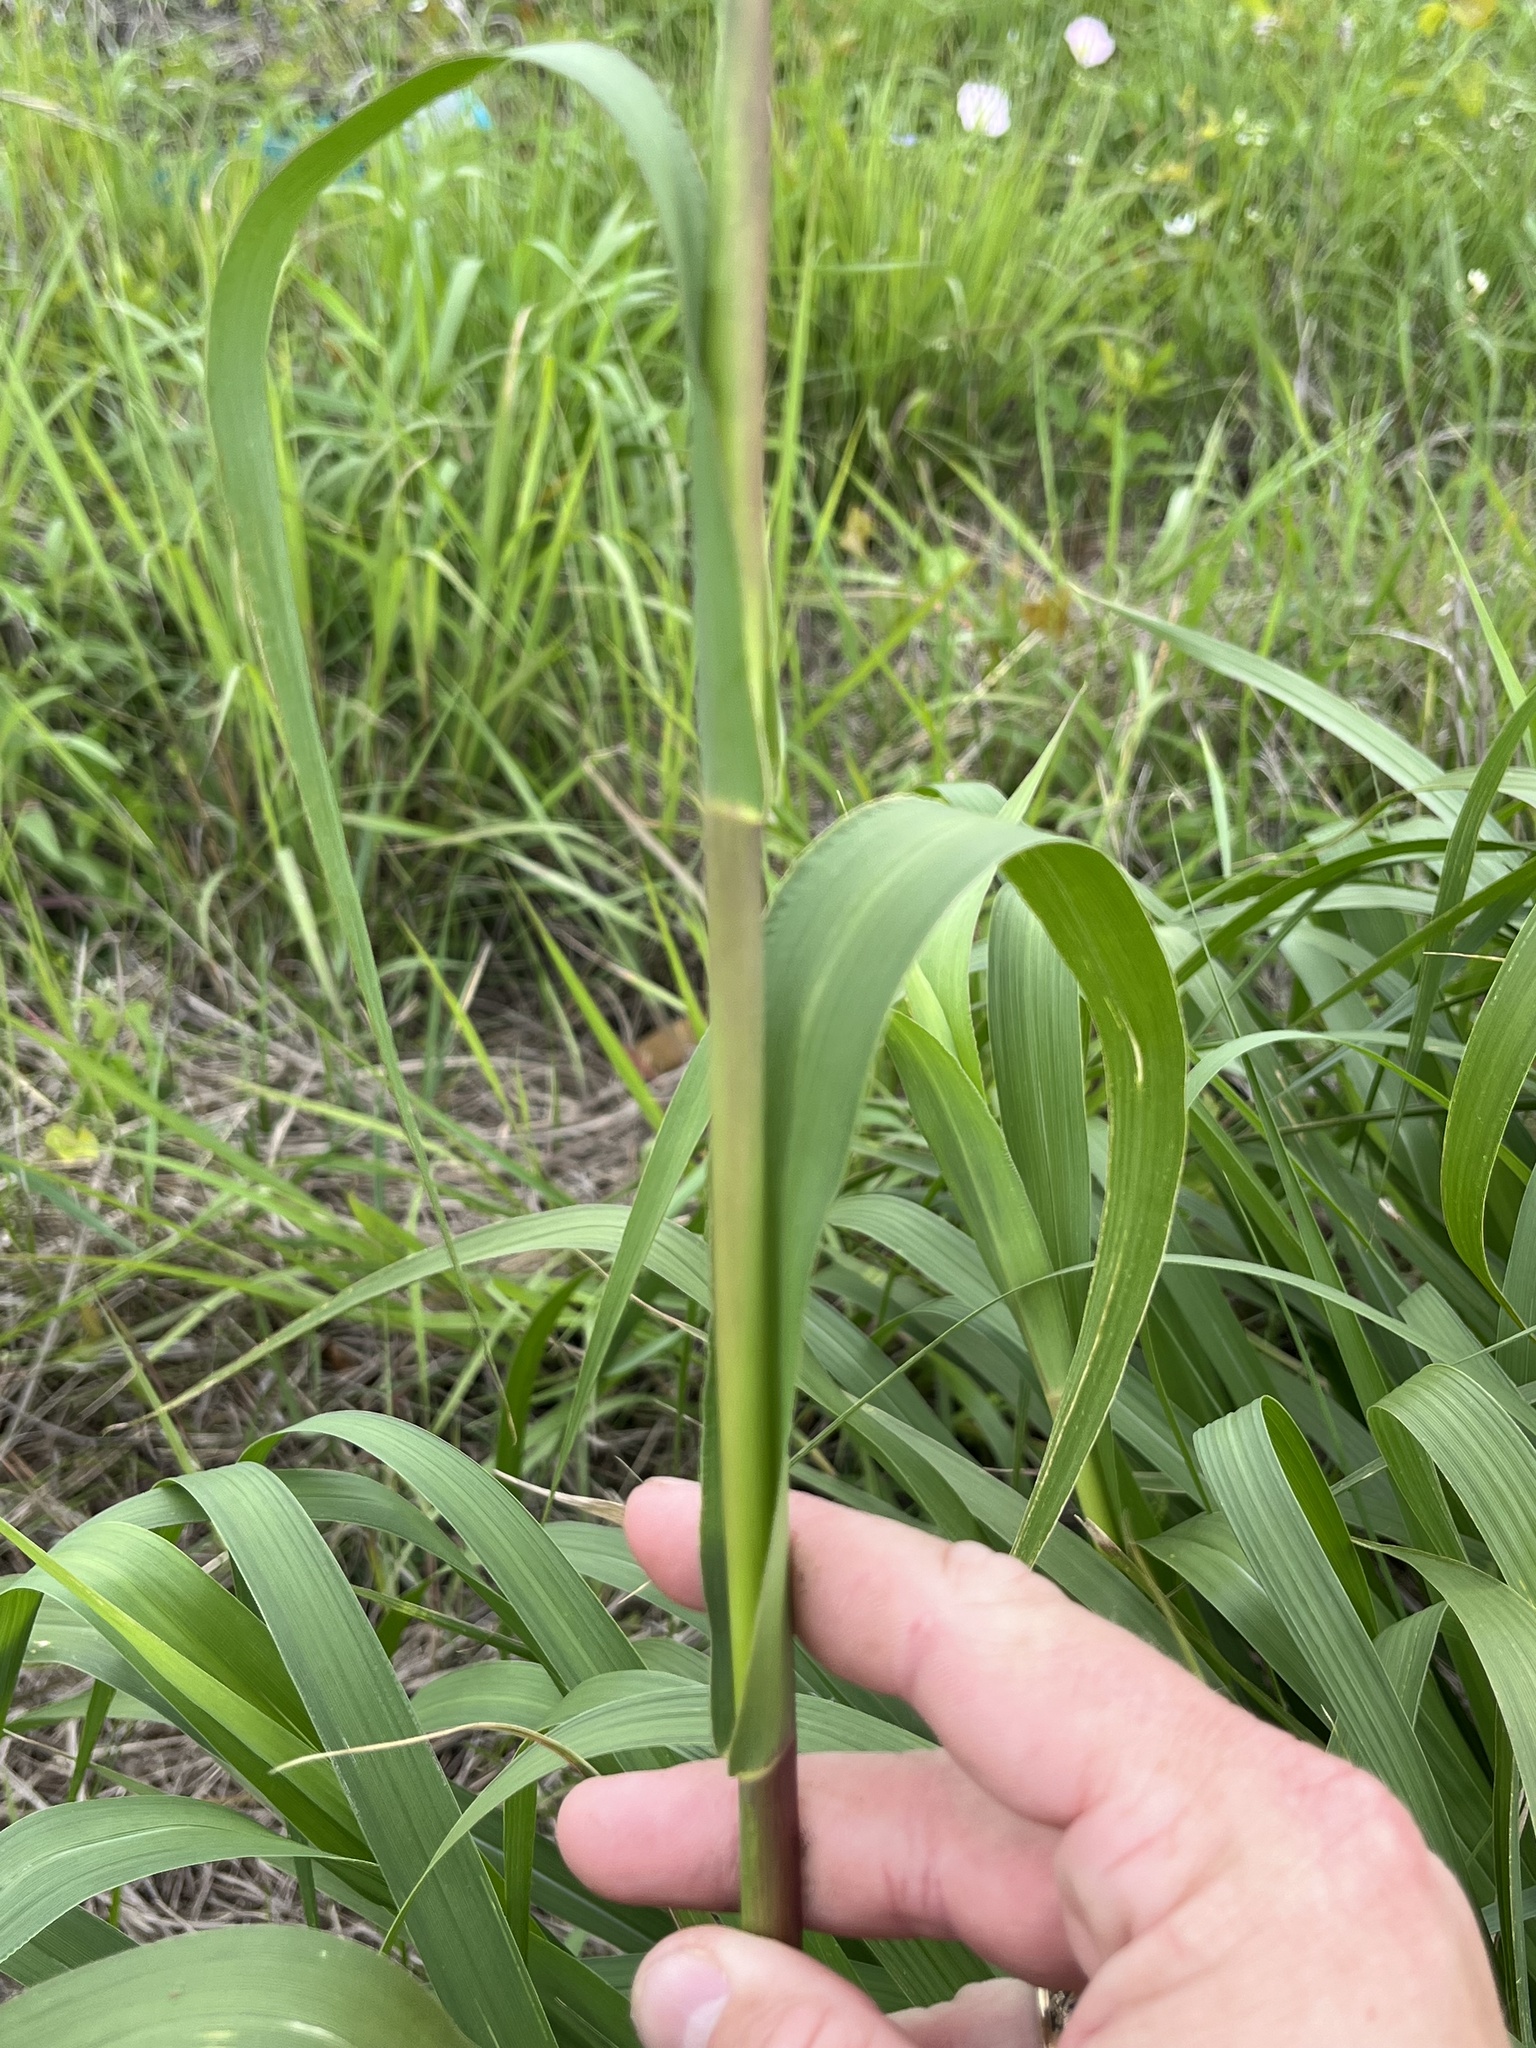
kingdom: Plantae
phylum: Tracheophyta
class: Liliopsida
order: Poales
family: Poaceae
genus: Tripsacum
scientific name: Tripsacum dactyloides
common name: Buffalo-grass
